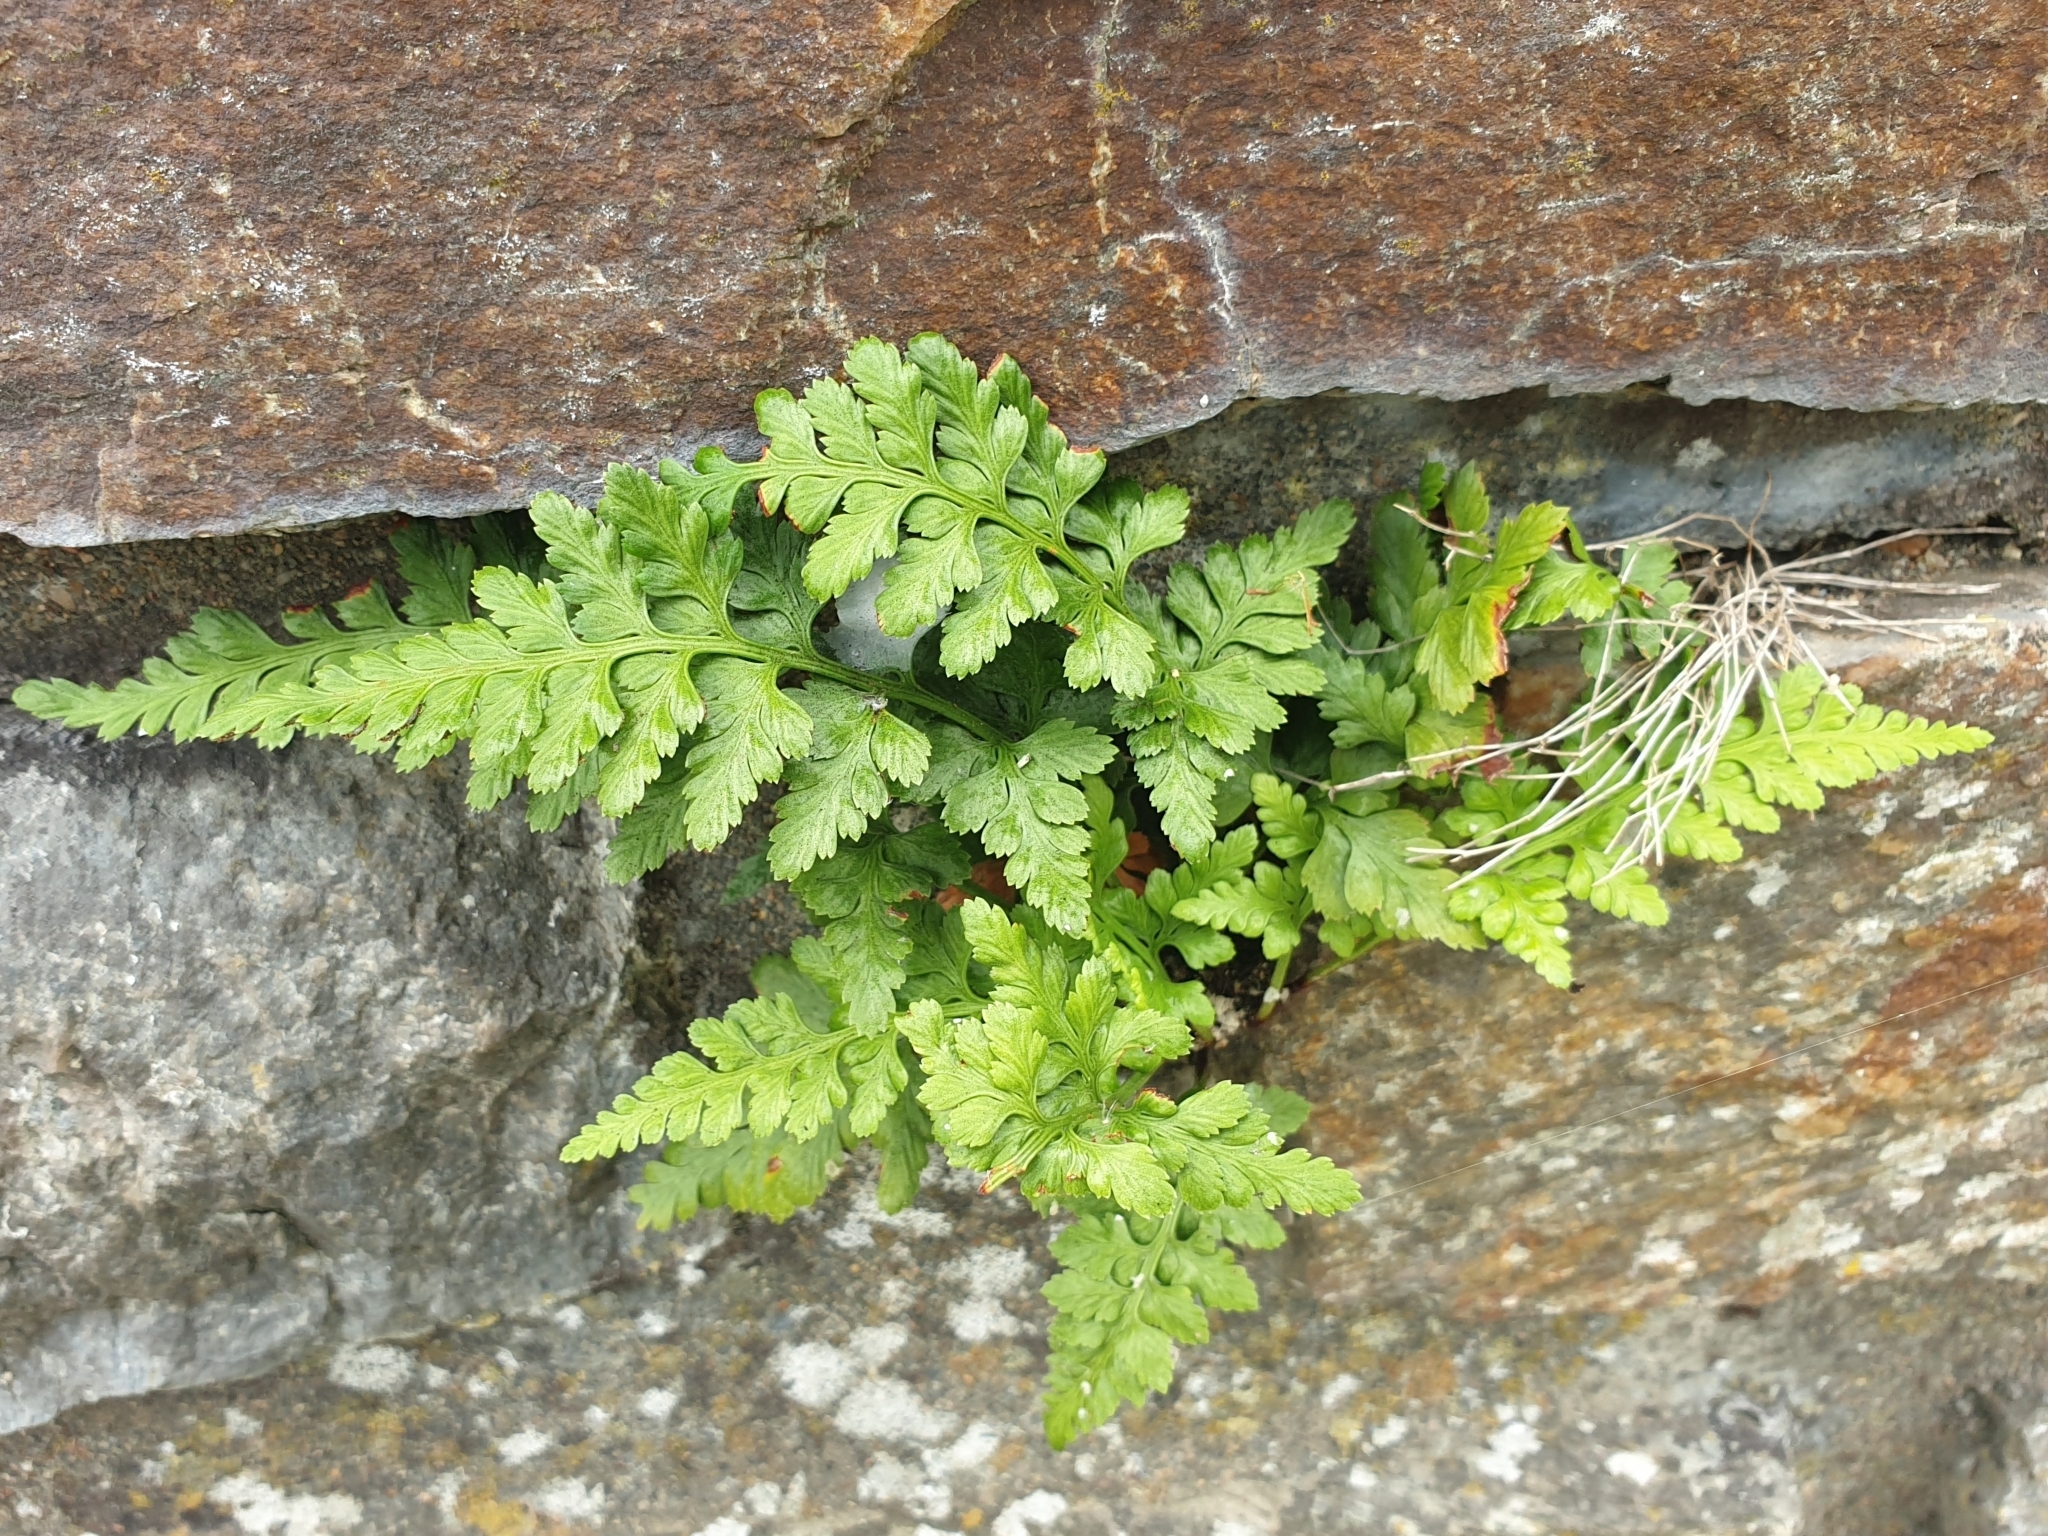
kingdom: Plantae
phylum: Tracheophyta
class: Polypodiopsida
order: Polypodiales
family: Aspleniaceae
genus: Asplenium
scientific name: Asplenium adiantum-nigrum
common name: Black spleenwort
